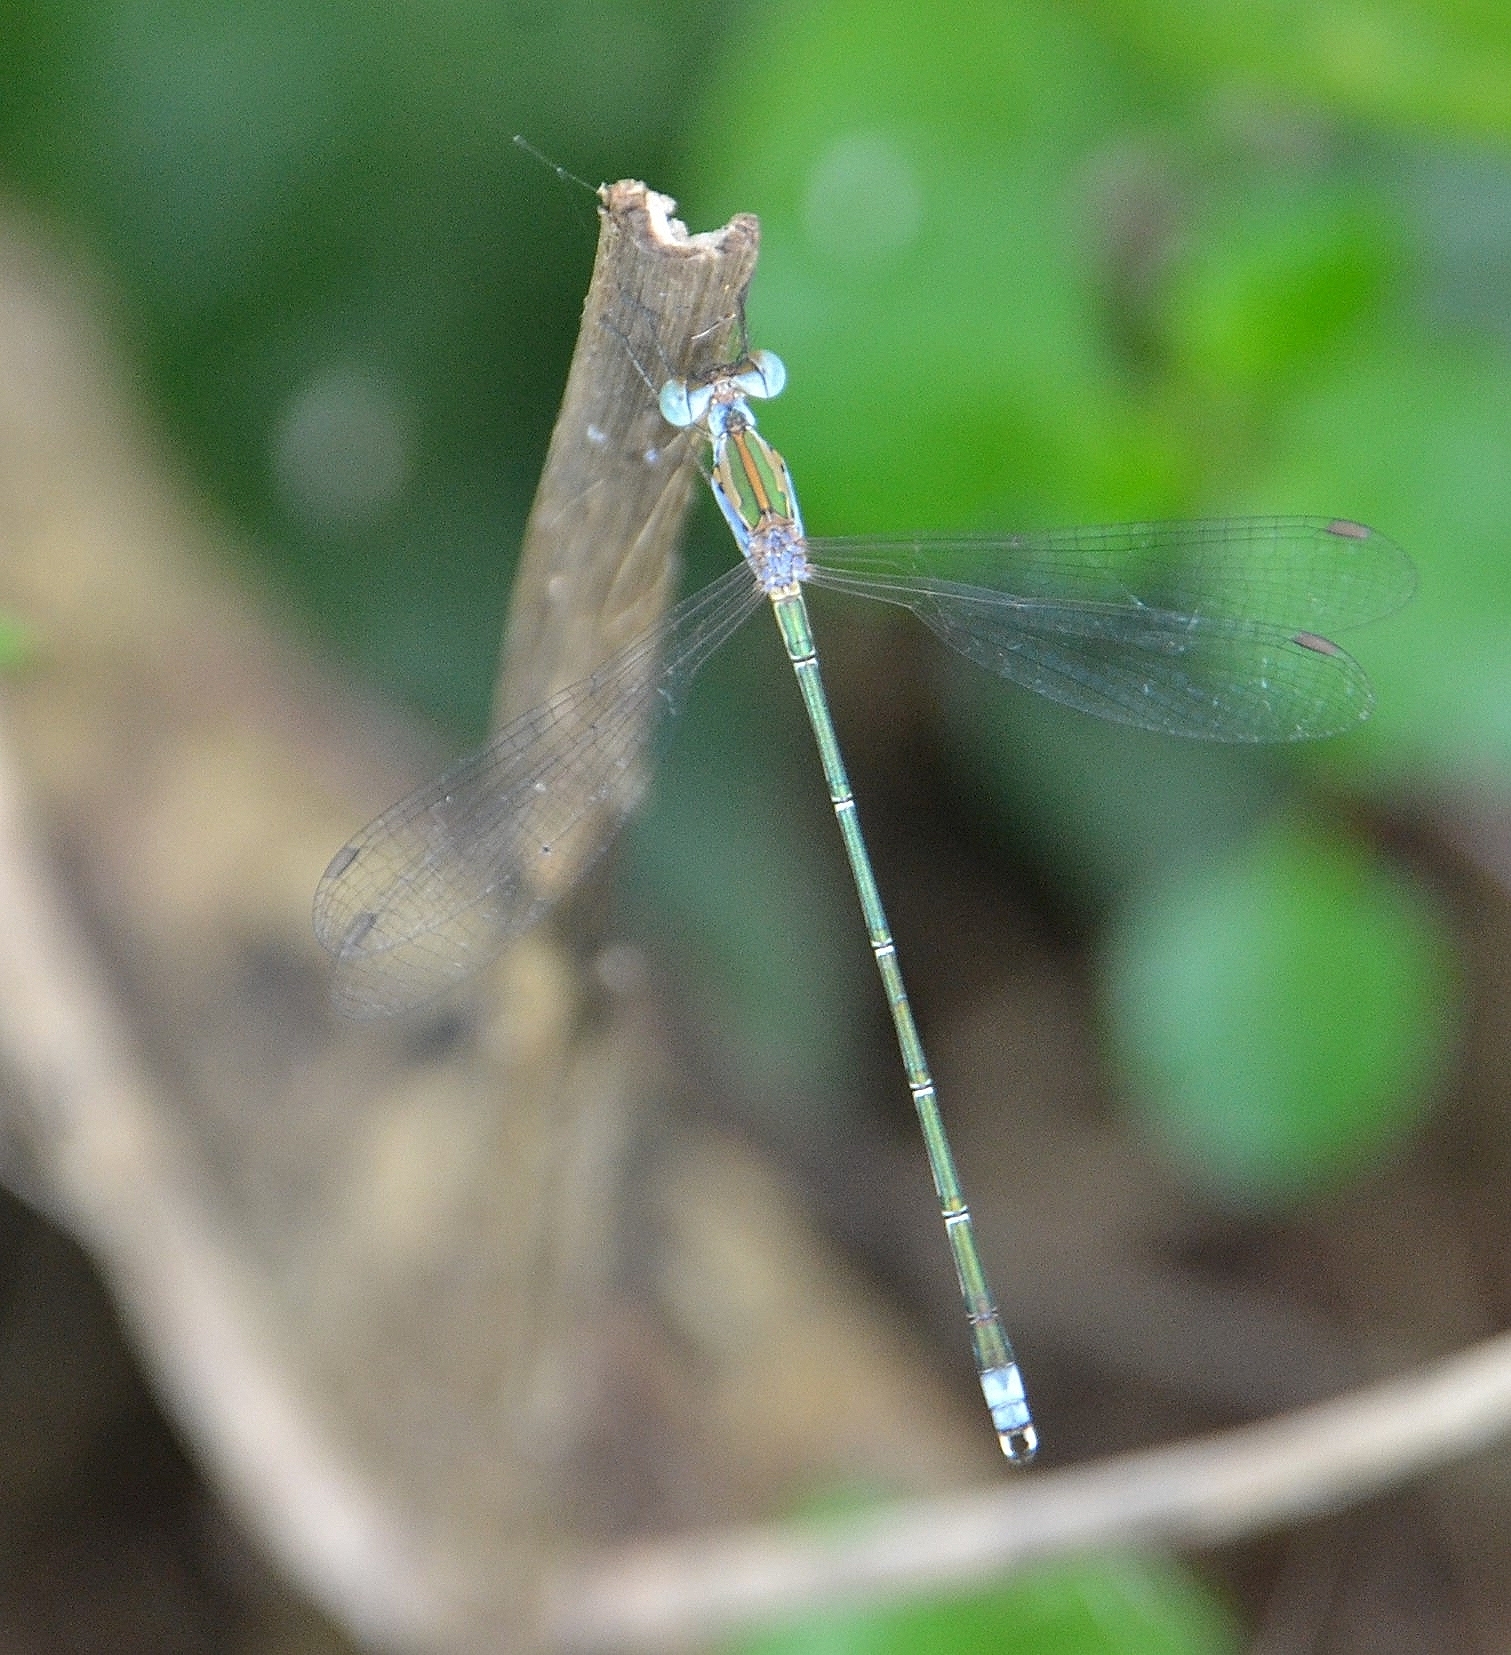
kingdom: Animalia
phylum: Arthropoda
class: Insecta
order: Odonata
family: Lestidae
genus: Lestes
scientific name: Lestes elatus
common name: Emerald spreadwing
